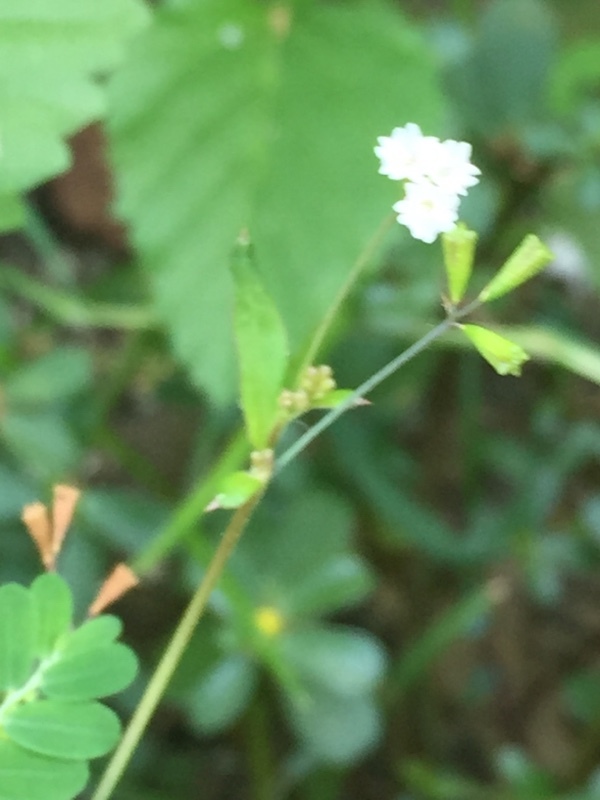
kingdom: Plantae
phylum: Tracheophyta
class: Magnoliopsida
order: Caryophyllales
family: Nyctaginaceae
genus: Boerhavia
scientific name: Boerhavia erecta
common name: Erect spiderling
